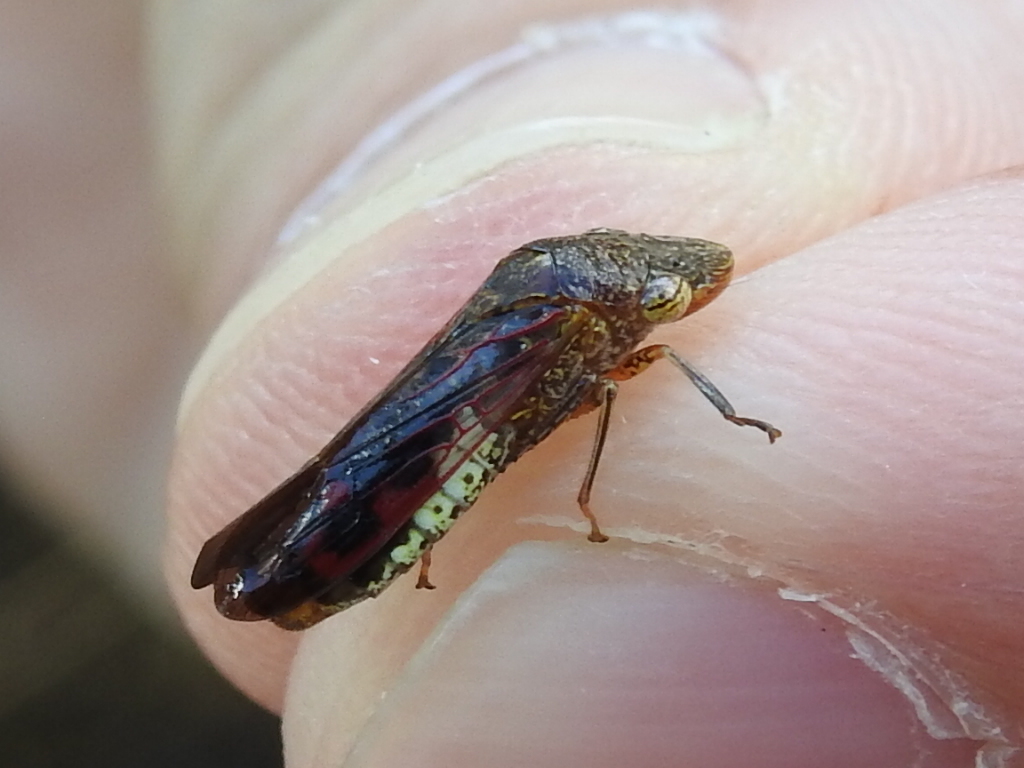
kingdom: Animalia
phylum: Arthropoda
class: Insecta
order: Hemiptera
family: Cicadellidae
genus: Homalodisca
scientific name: Homalodisca vitripennis
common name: Glassy-winged sharpshooter
